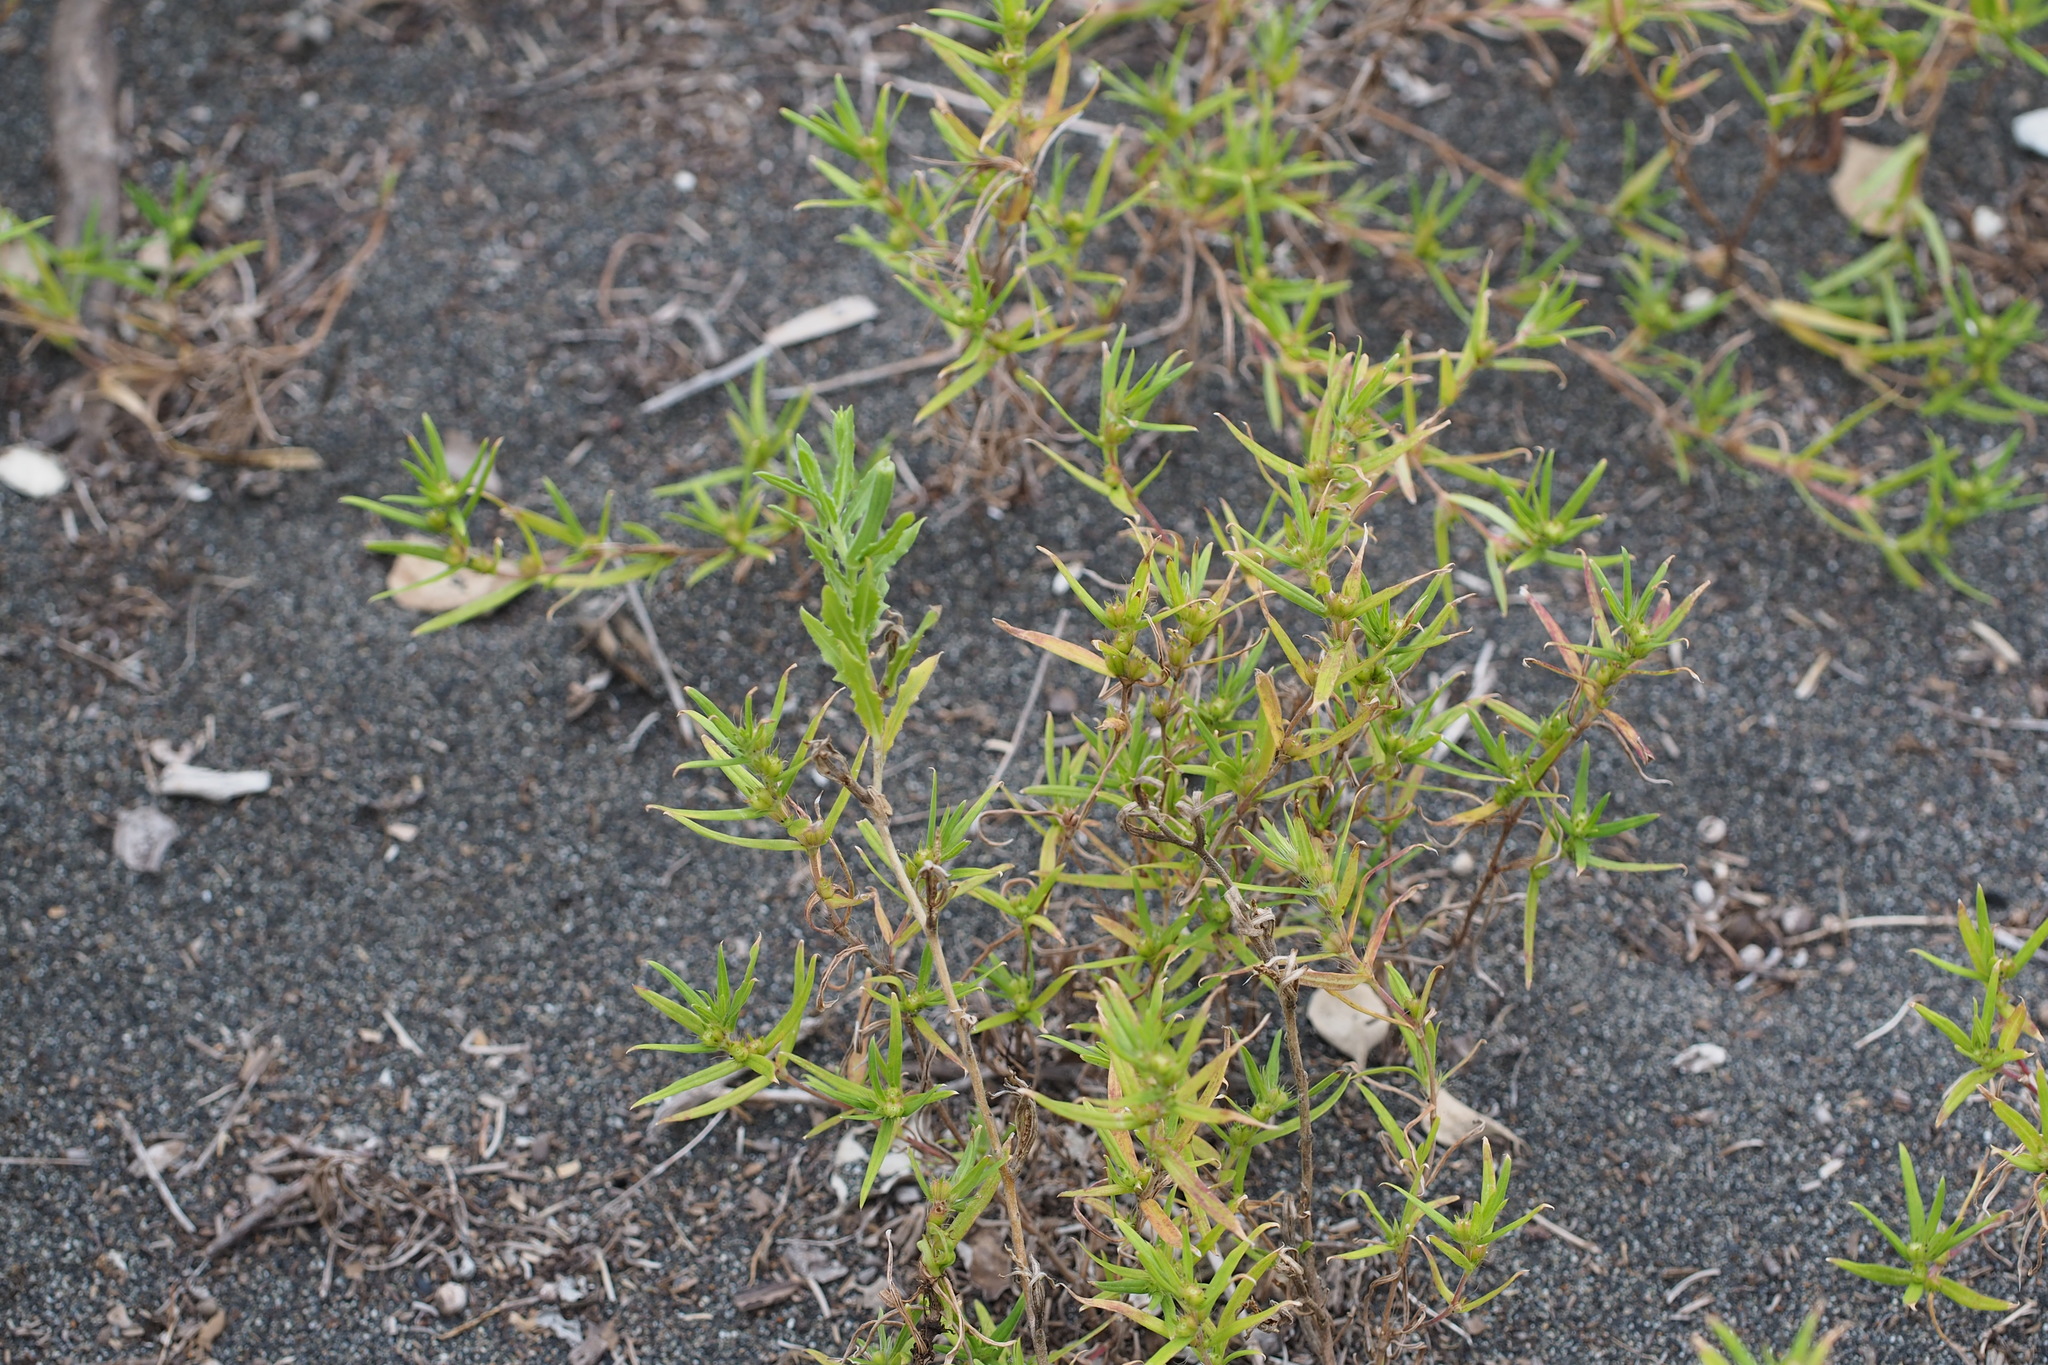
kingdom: Plantae
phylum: Tracheophyta
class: Magnoliopsida
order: Gentianales
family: Rubiaceae
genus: Hexasepalum
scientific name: Hexasepalum teres
